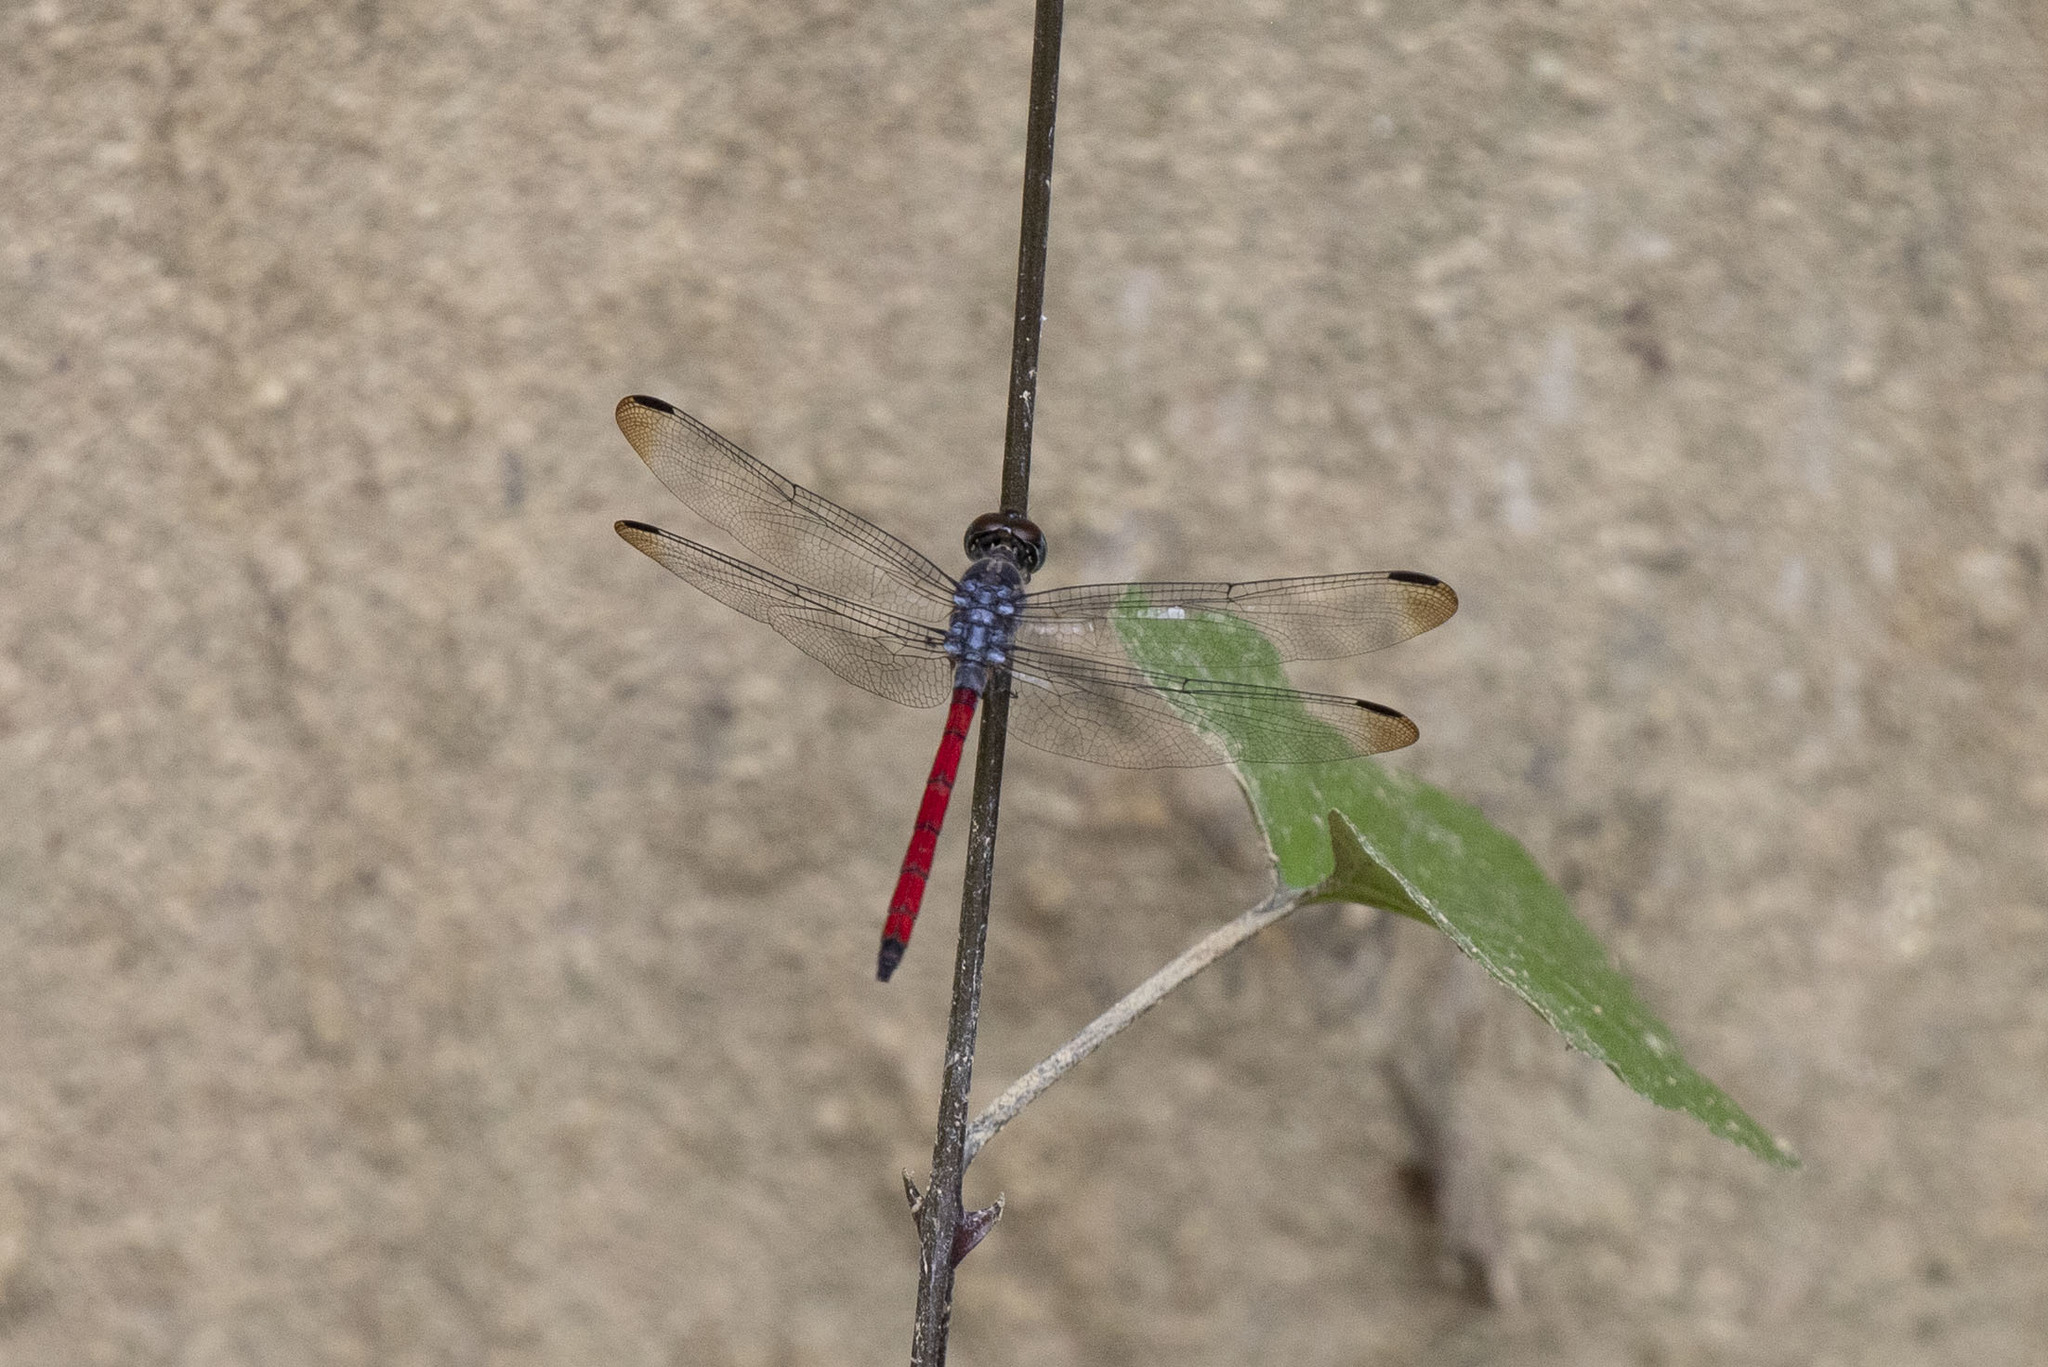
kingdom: Animalia
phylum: Arthropoda
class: Insecta
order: Odonata
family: Libellulidae
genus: Lathrecista
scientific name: Lathrecista asiatica
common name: Scarlet grenadier
